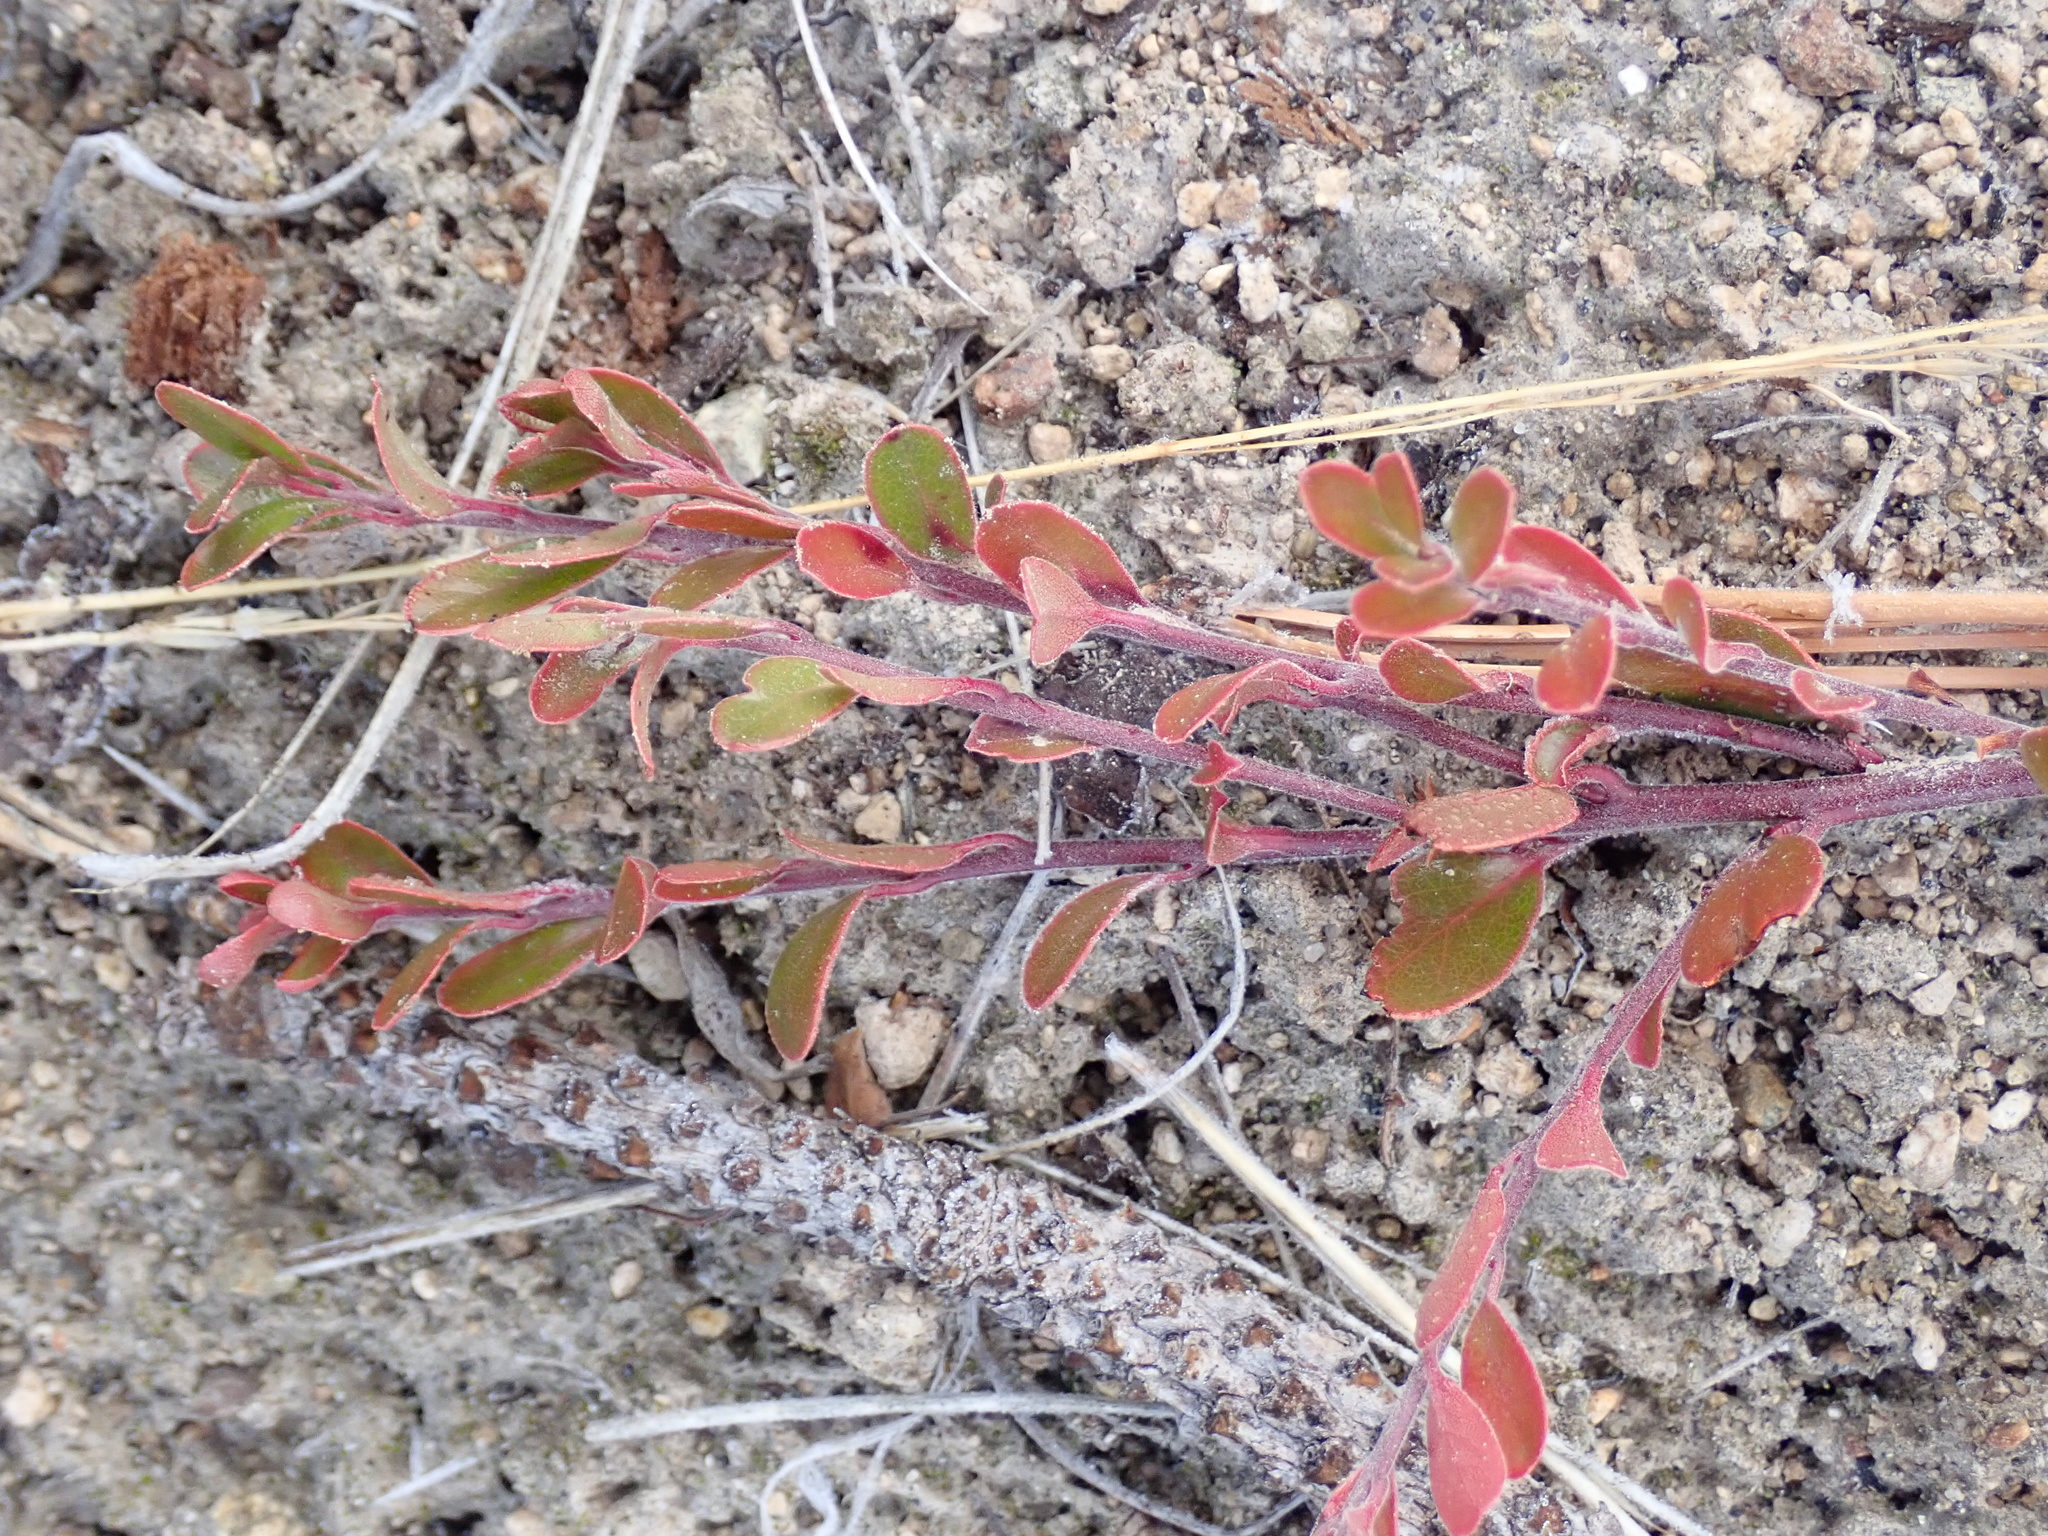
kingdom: Plantae
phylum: Tracheophyta
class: Magnoliopsida
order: Ericales
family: Ericaceae
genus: Arctostaphylos
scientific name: Arctostaphylos uva-ursi
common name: Bearberry
